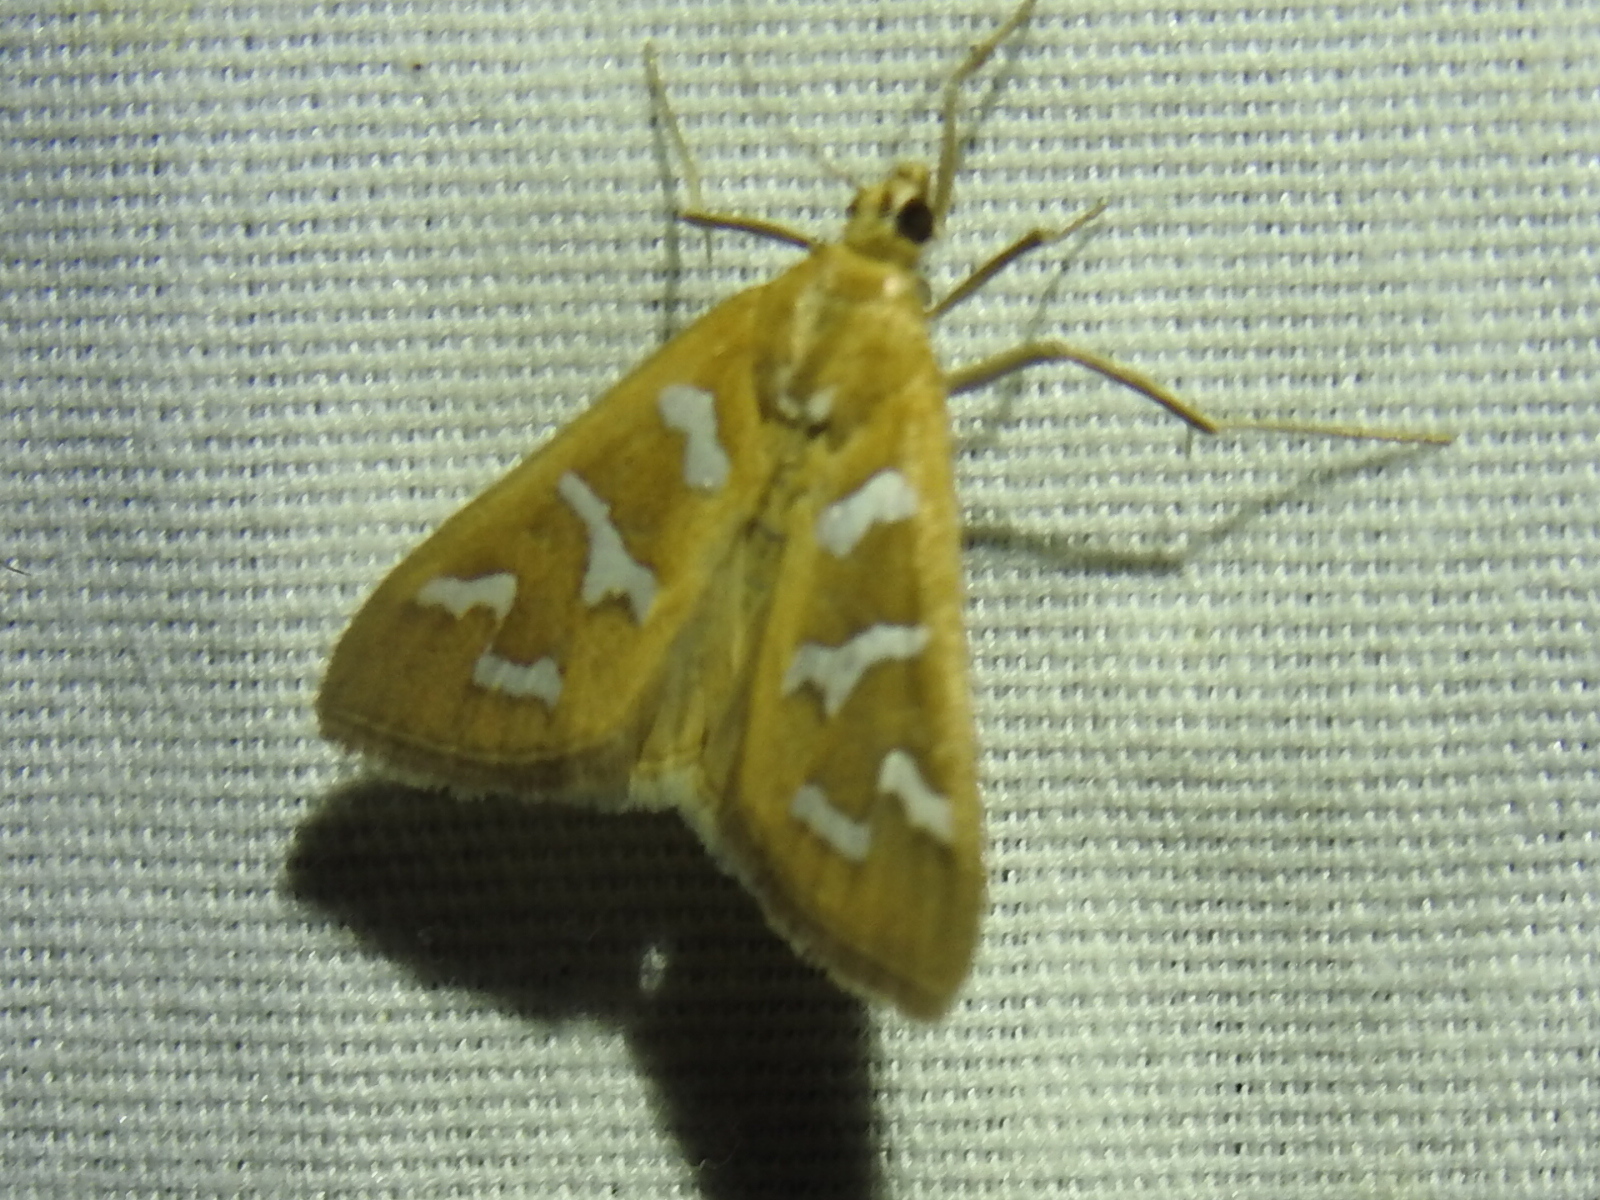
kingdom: Animalia
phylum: Arthropoda
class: Insecta
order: Lepidoptera
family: Crambidae
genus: Diastictis
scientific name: Diastictis fracturalis
